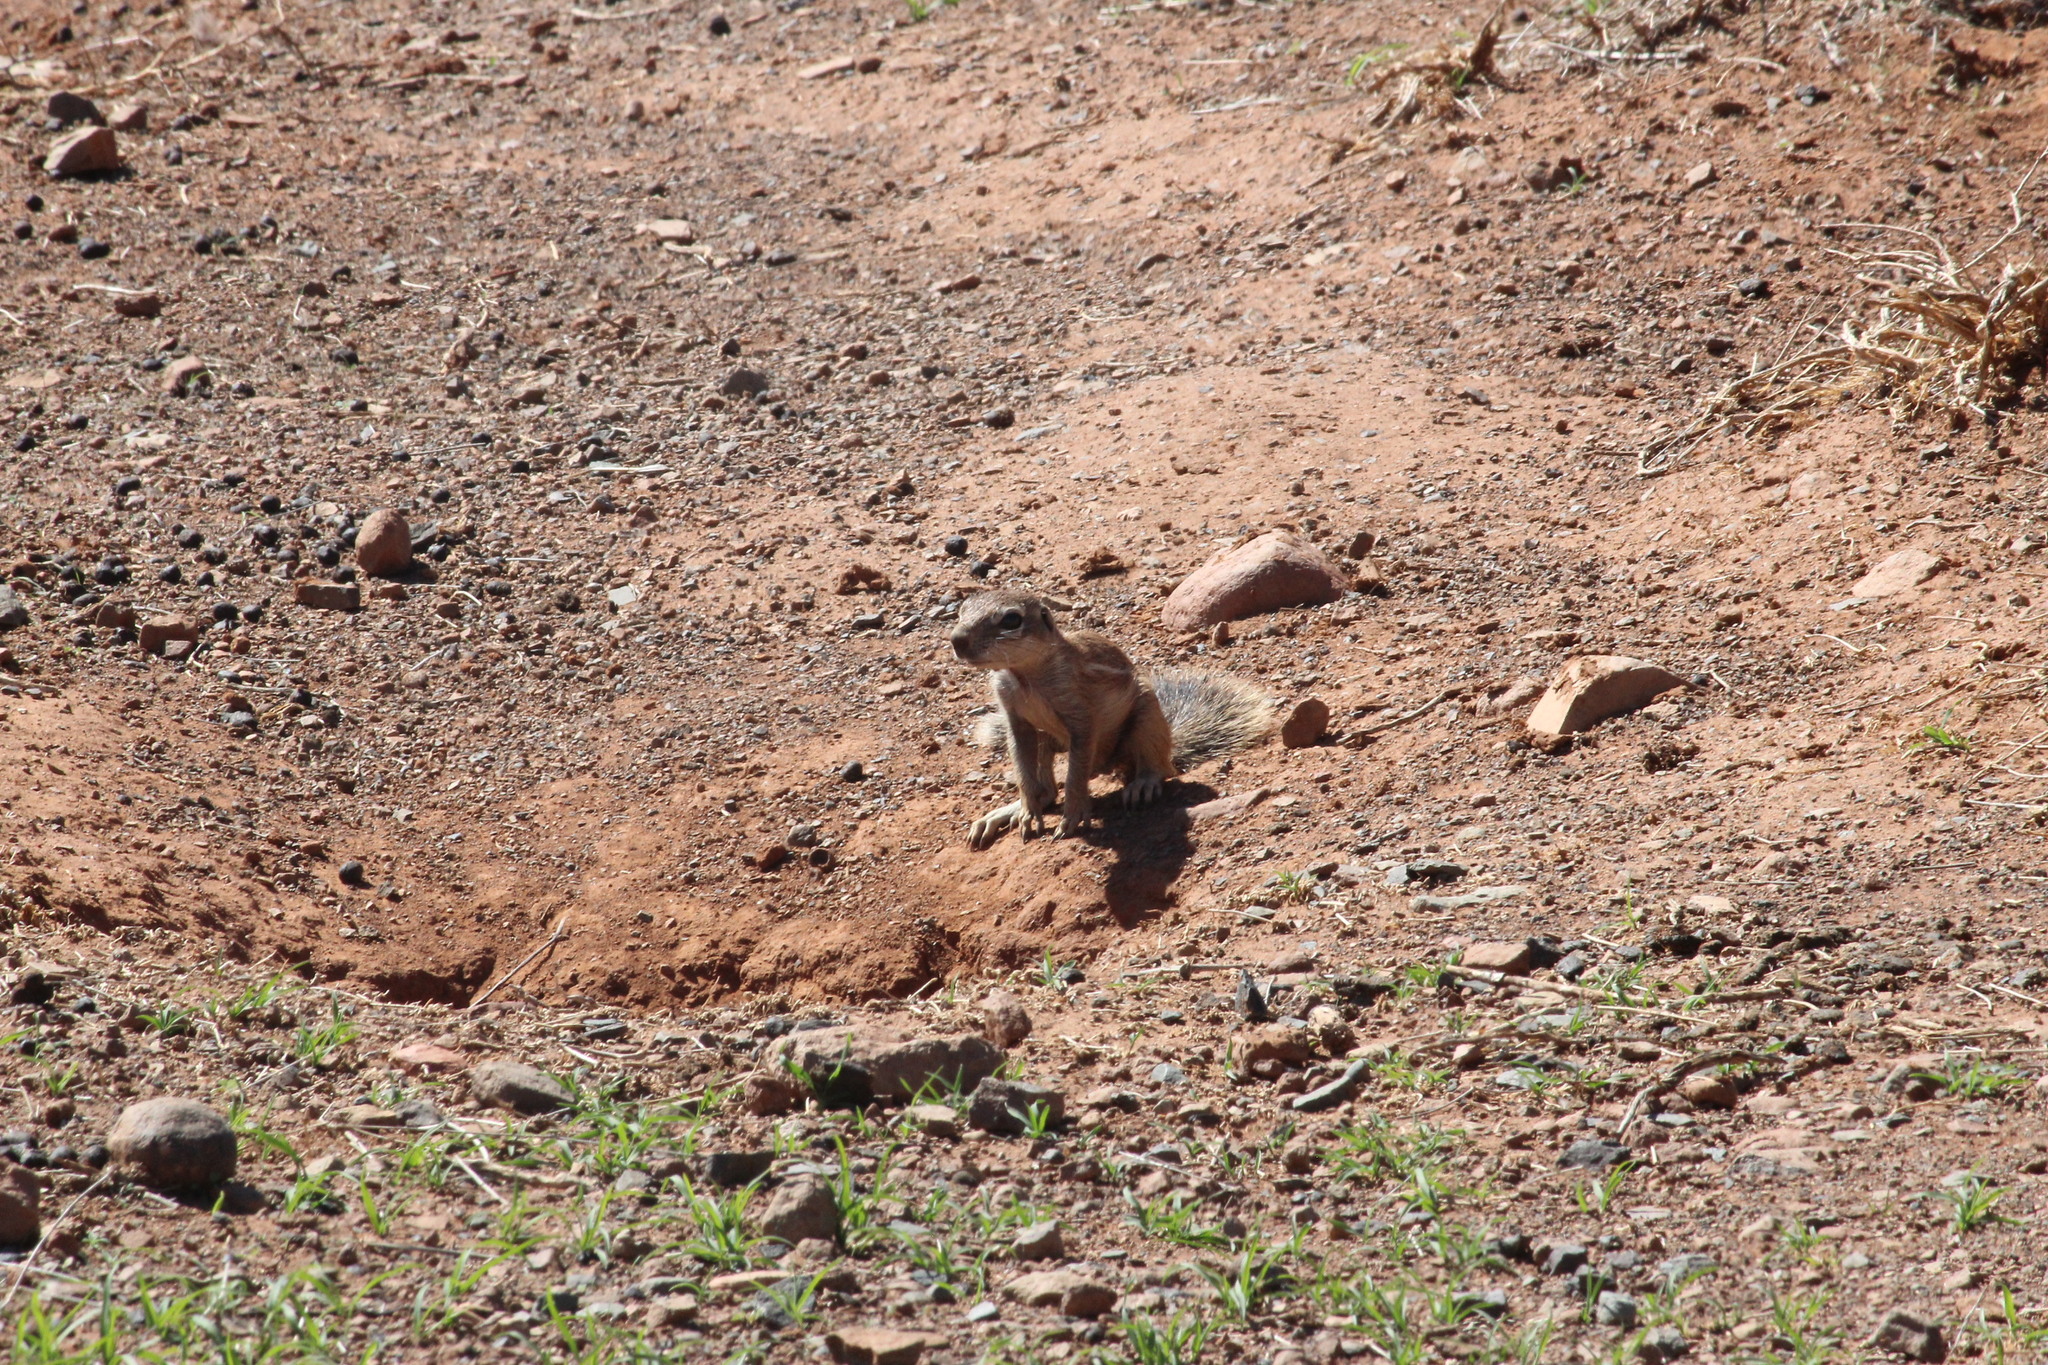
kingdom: Animalia
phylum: Chordata
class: Mammalia
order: Rodentia
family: Sciuridae
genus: Xerus
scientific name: Xerus inauris
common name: South african ground squirrel
